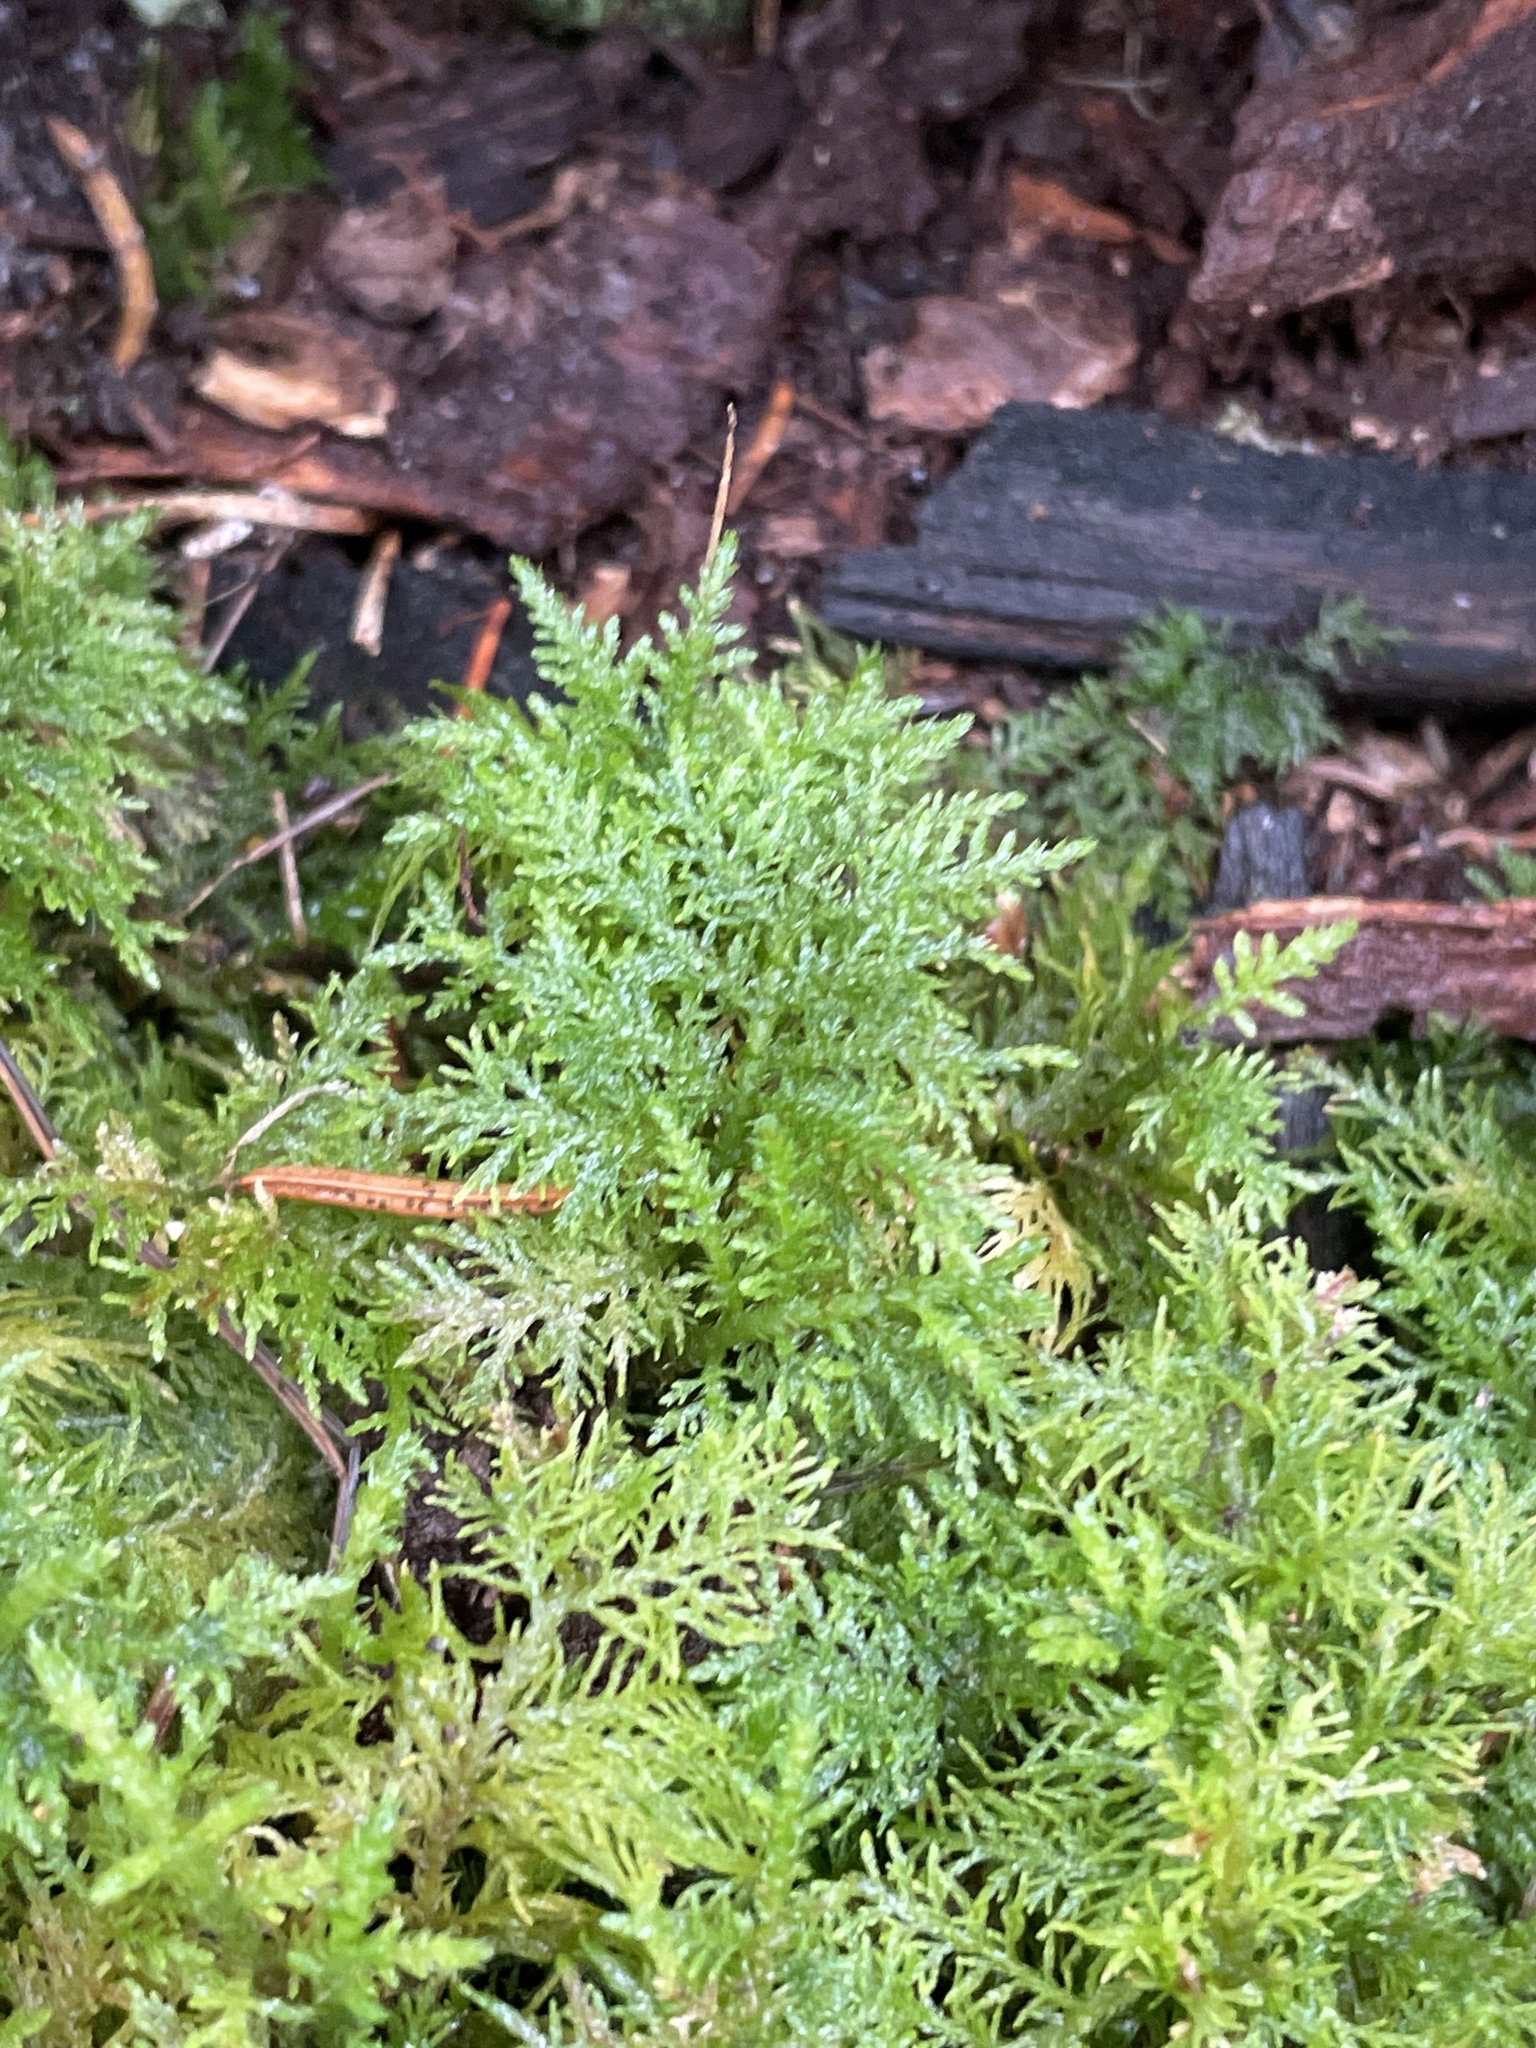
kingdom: Plantae
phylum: Bryophyta
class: Bryopsida
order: Hypnales
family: Thuidiaceae
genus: Thuidium
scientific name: Thuidium tamariscinum
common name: Common tamarisk-moss
